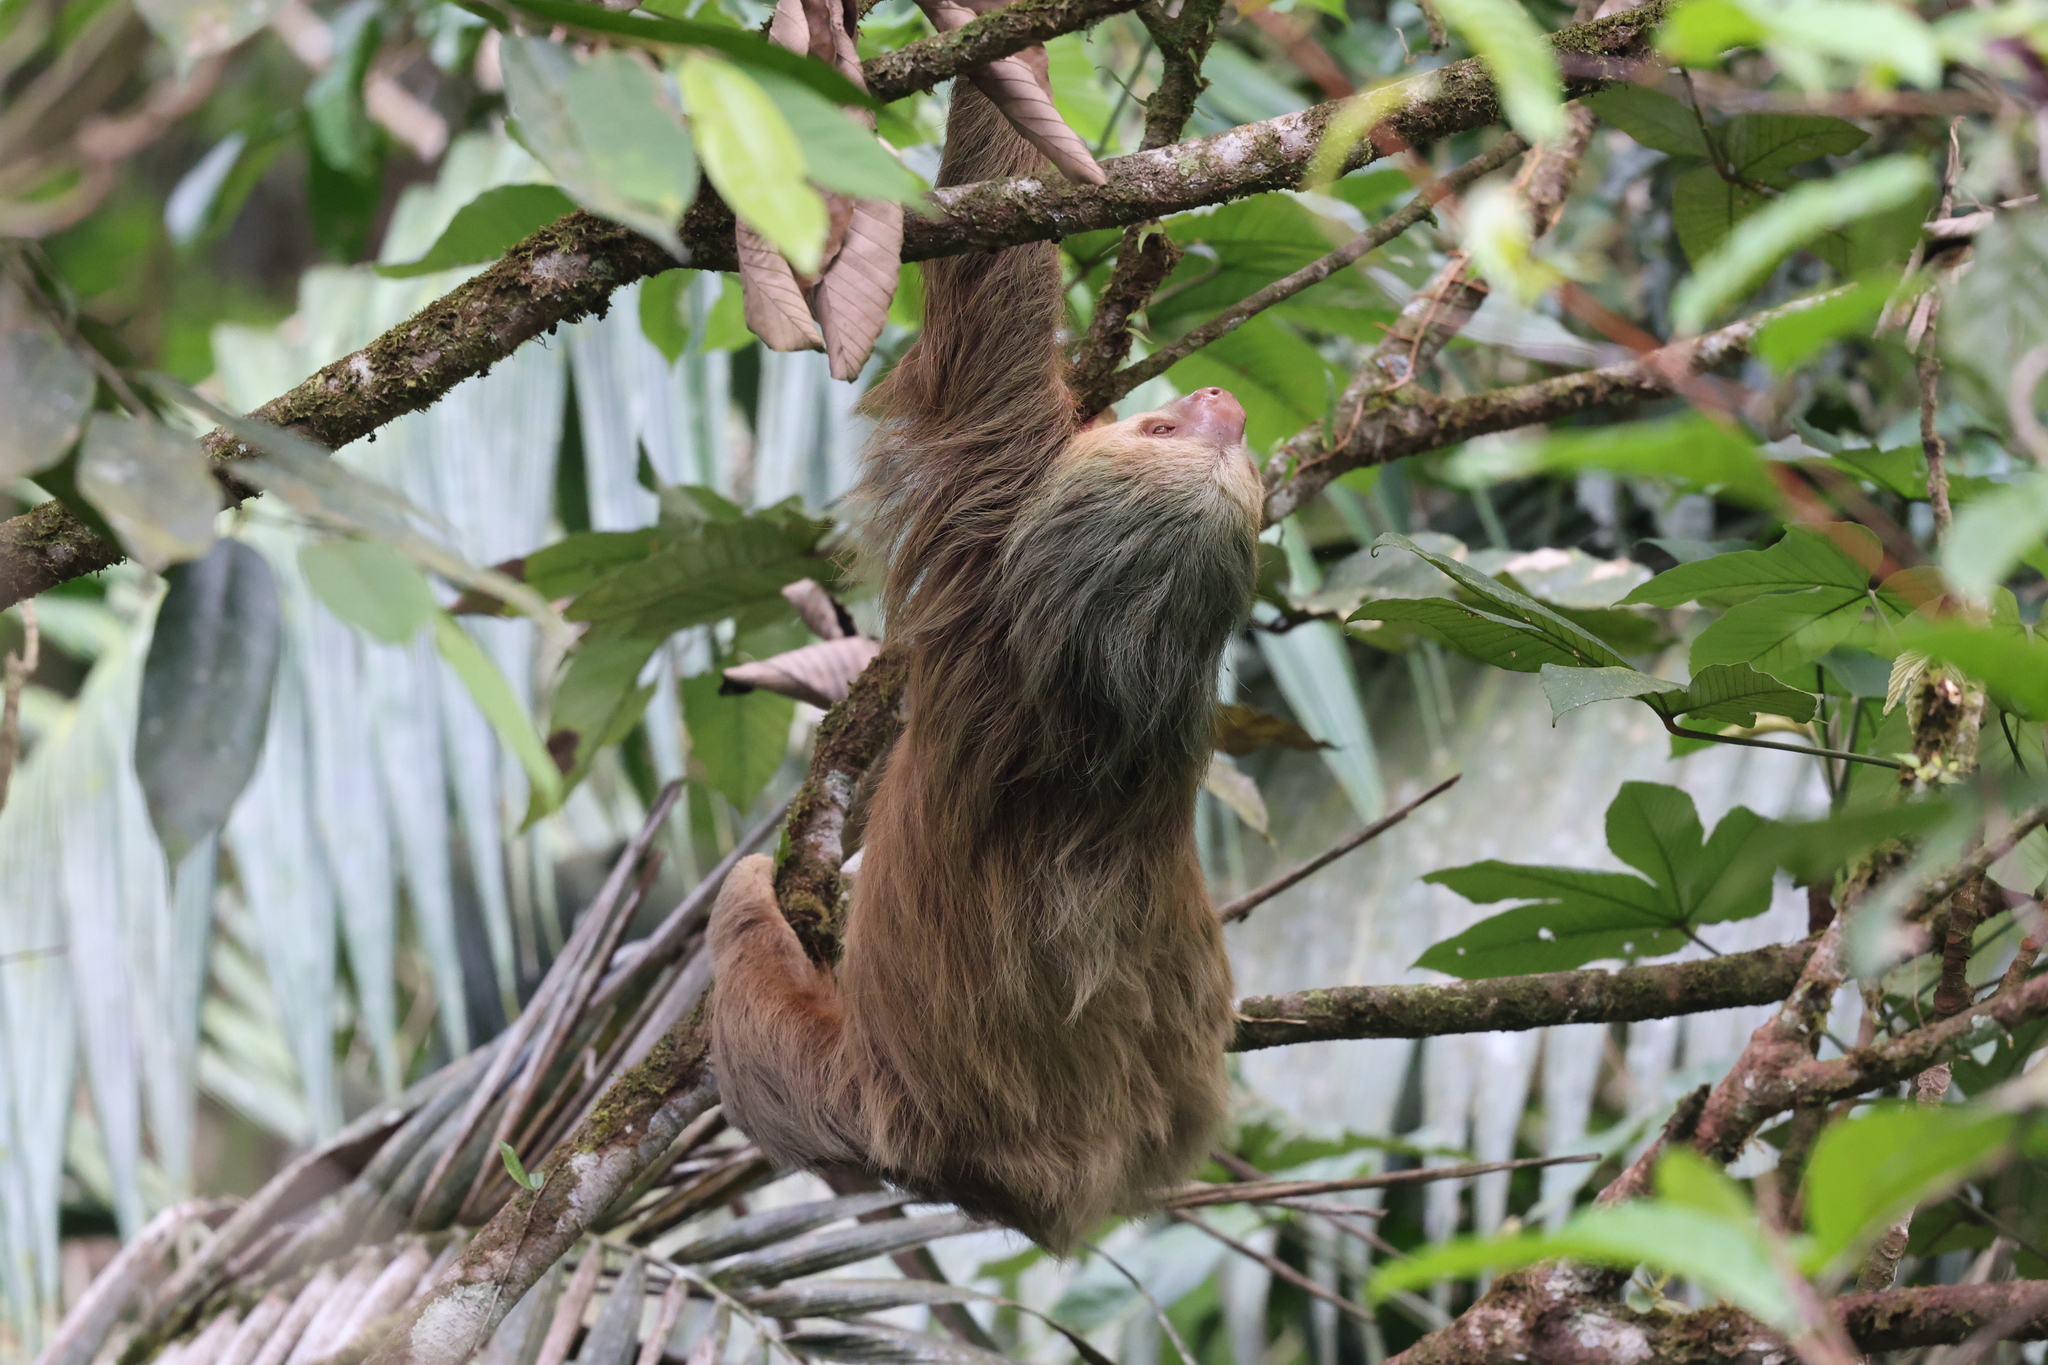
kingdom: Animalia
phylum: Chordata
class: Mammalia
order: Pilosa
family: Megalonychidae
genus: Choloepus
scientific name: Choloepus hoffmanni
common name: Hoffmann's two-toed sloth
